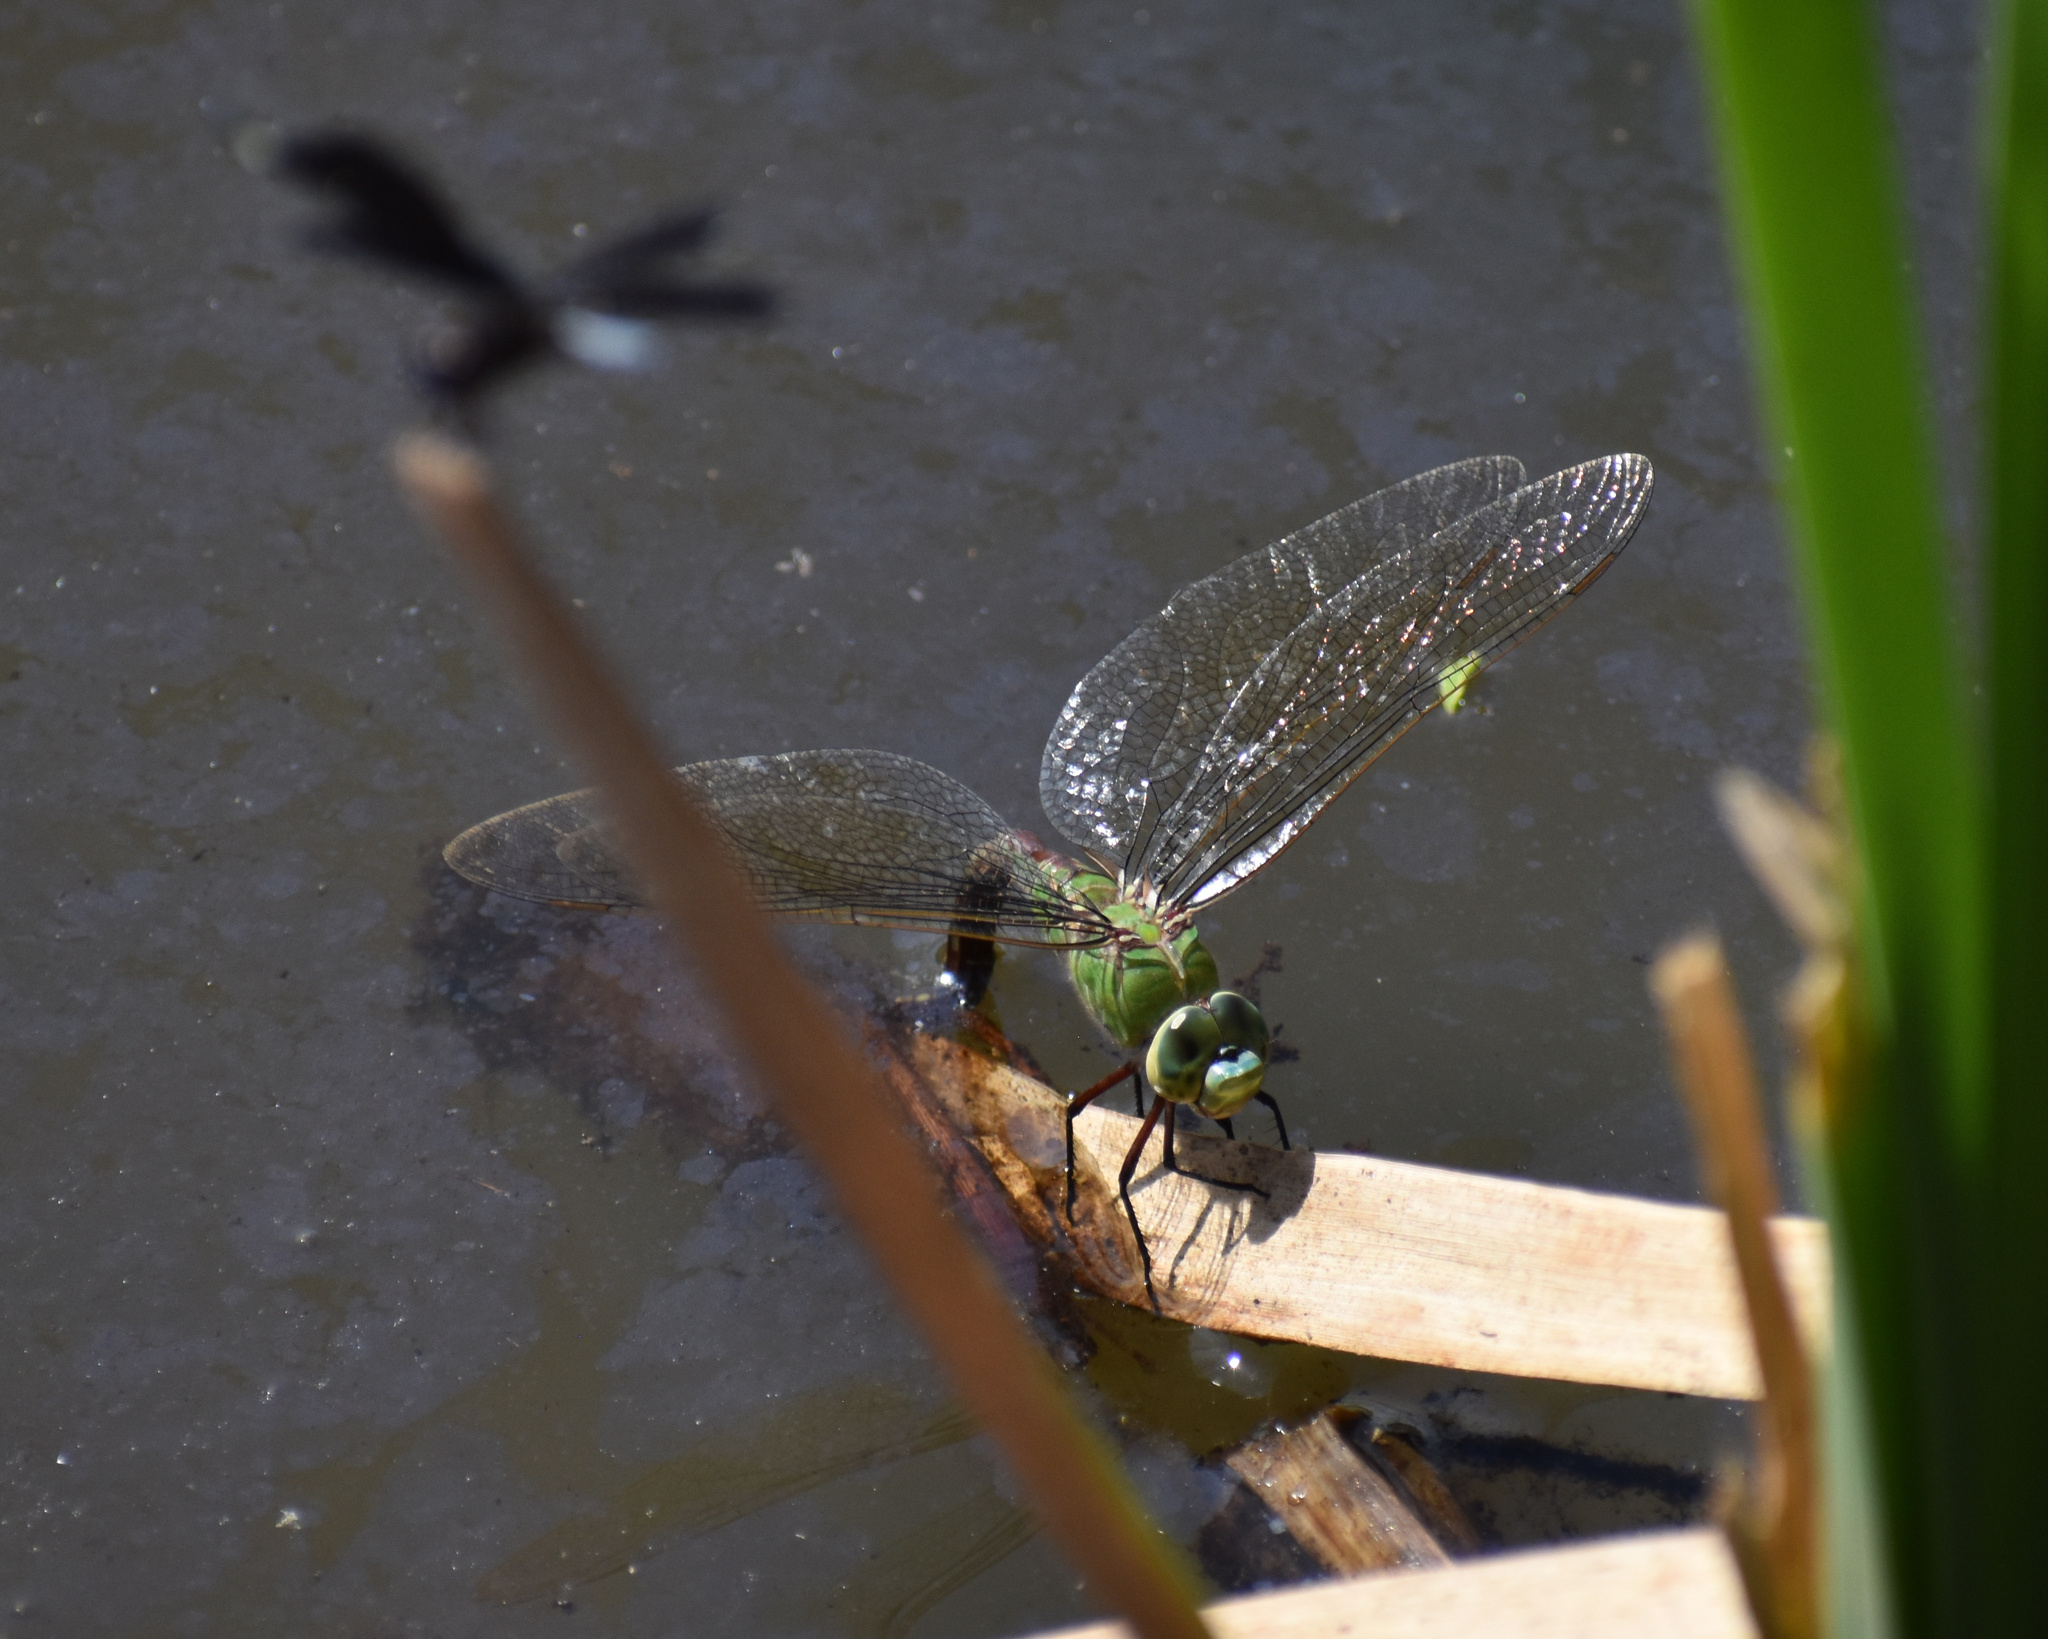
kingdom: Animalia
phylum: Arthropoda
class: Insecta
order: Odonata
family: Aeshnidae
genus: Anax
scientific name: Anax imperator
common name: Emperor dragonfly
